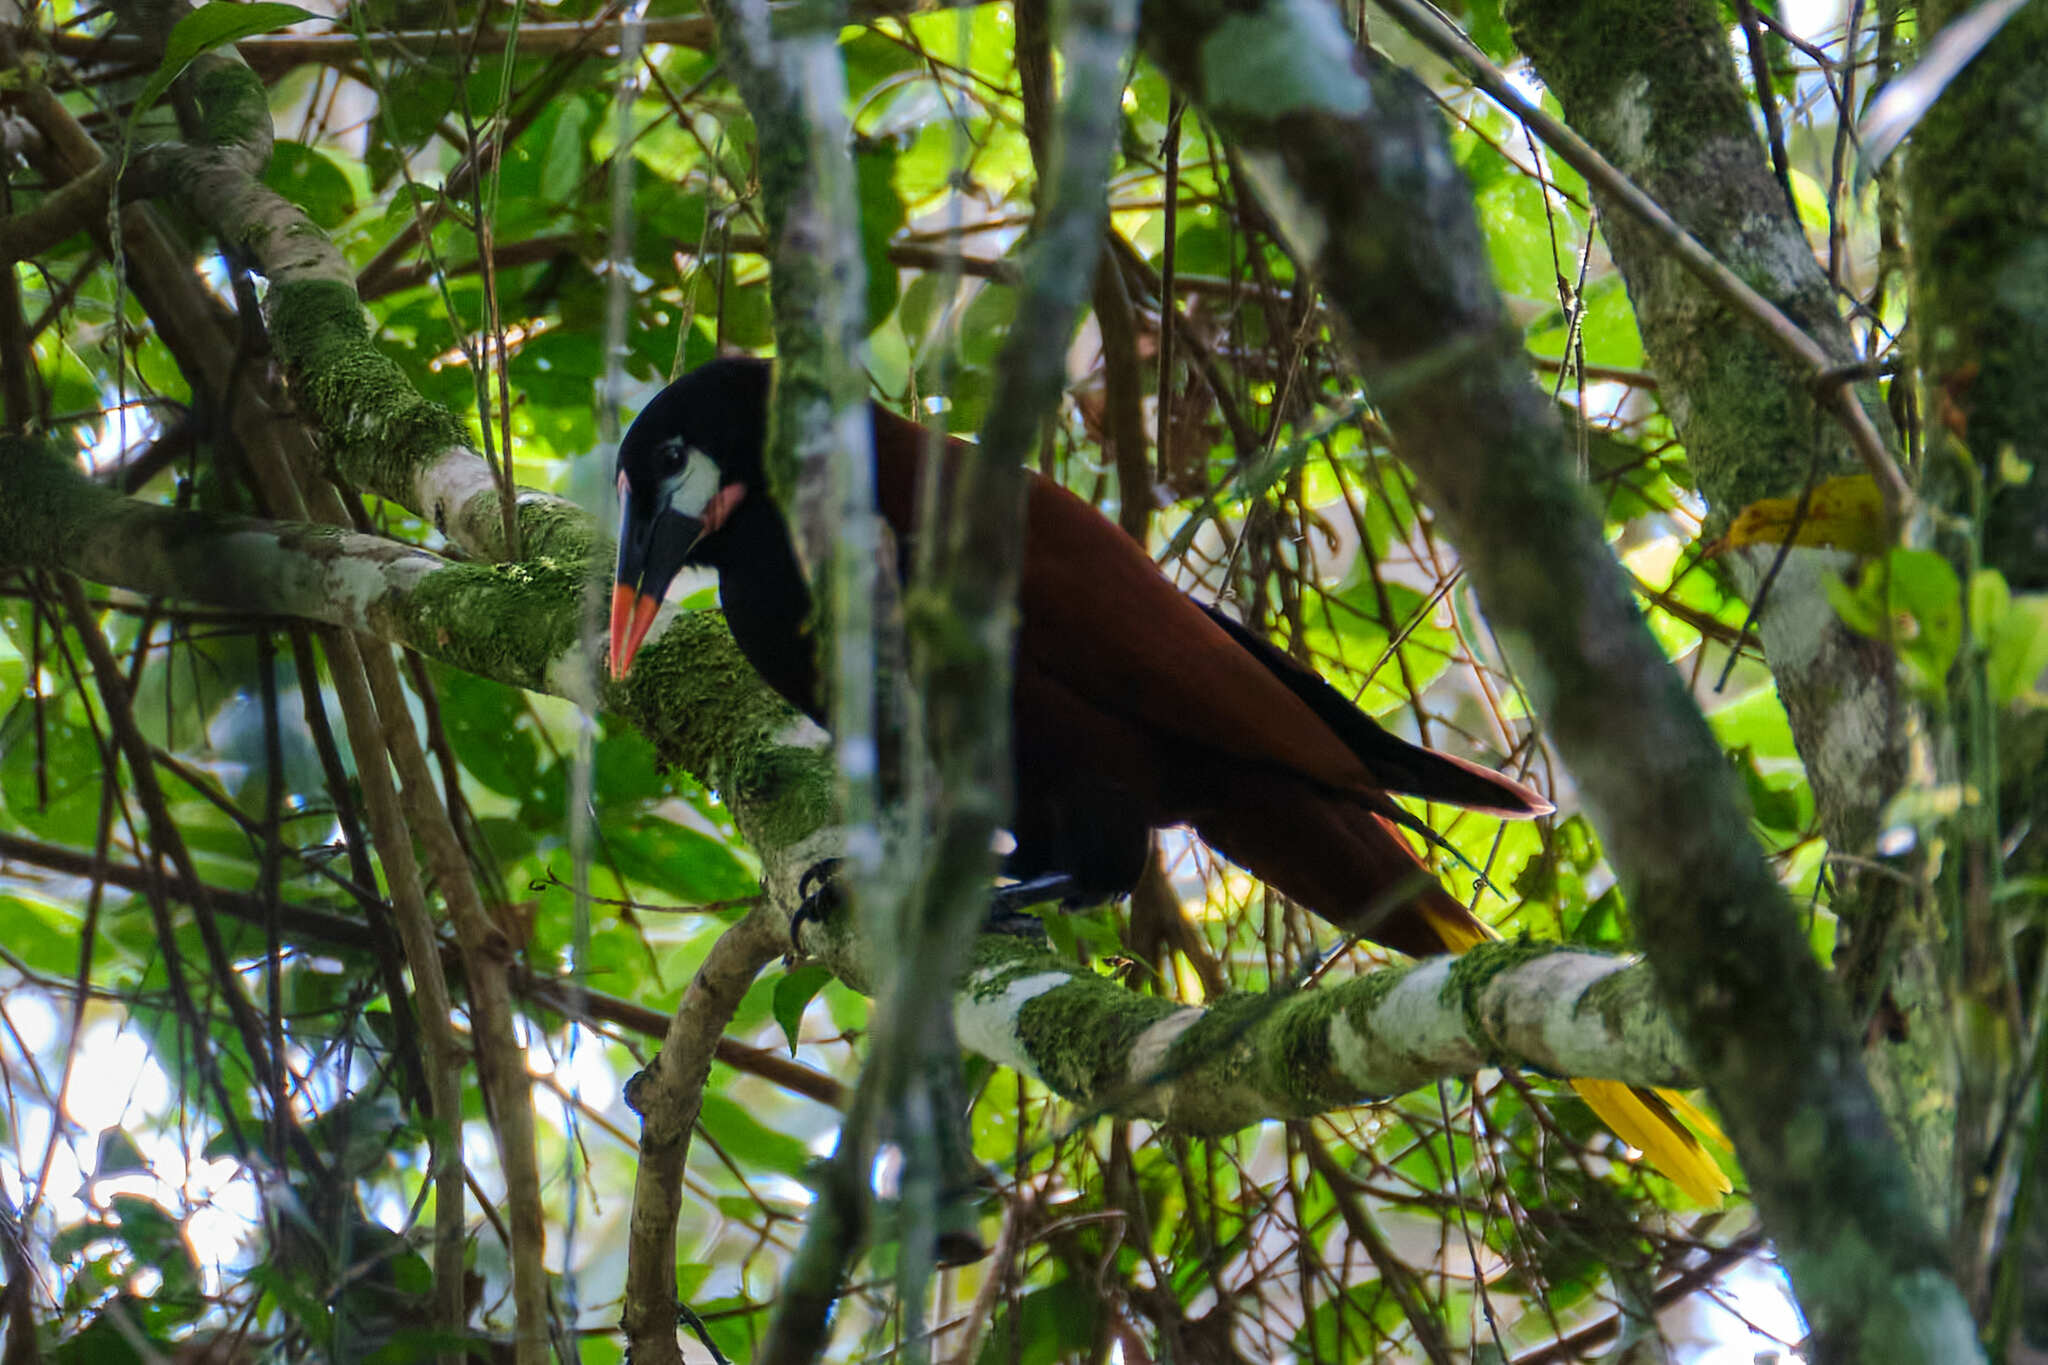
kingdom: Animalia
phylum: Chordata
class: Aves
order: Passeriformes
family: Icteridae
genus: Psarocolius
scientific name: Psarocolius montezuma
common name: Montezuma oropendola
